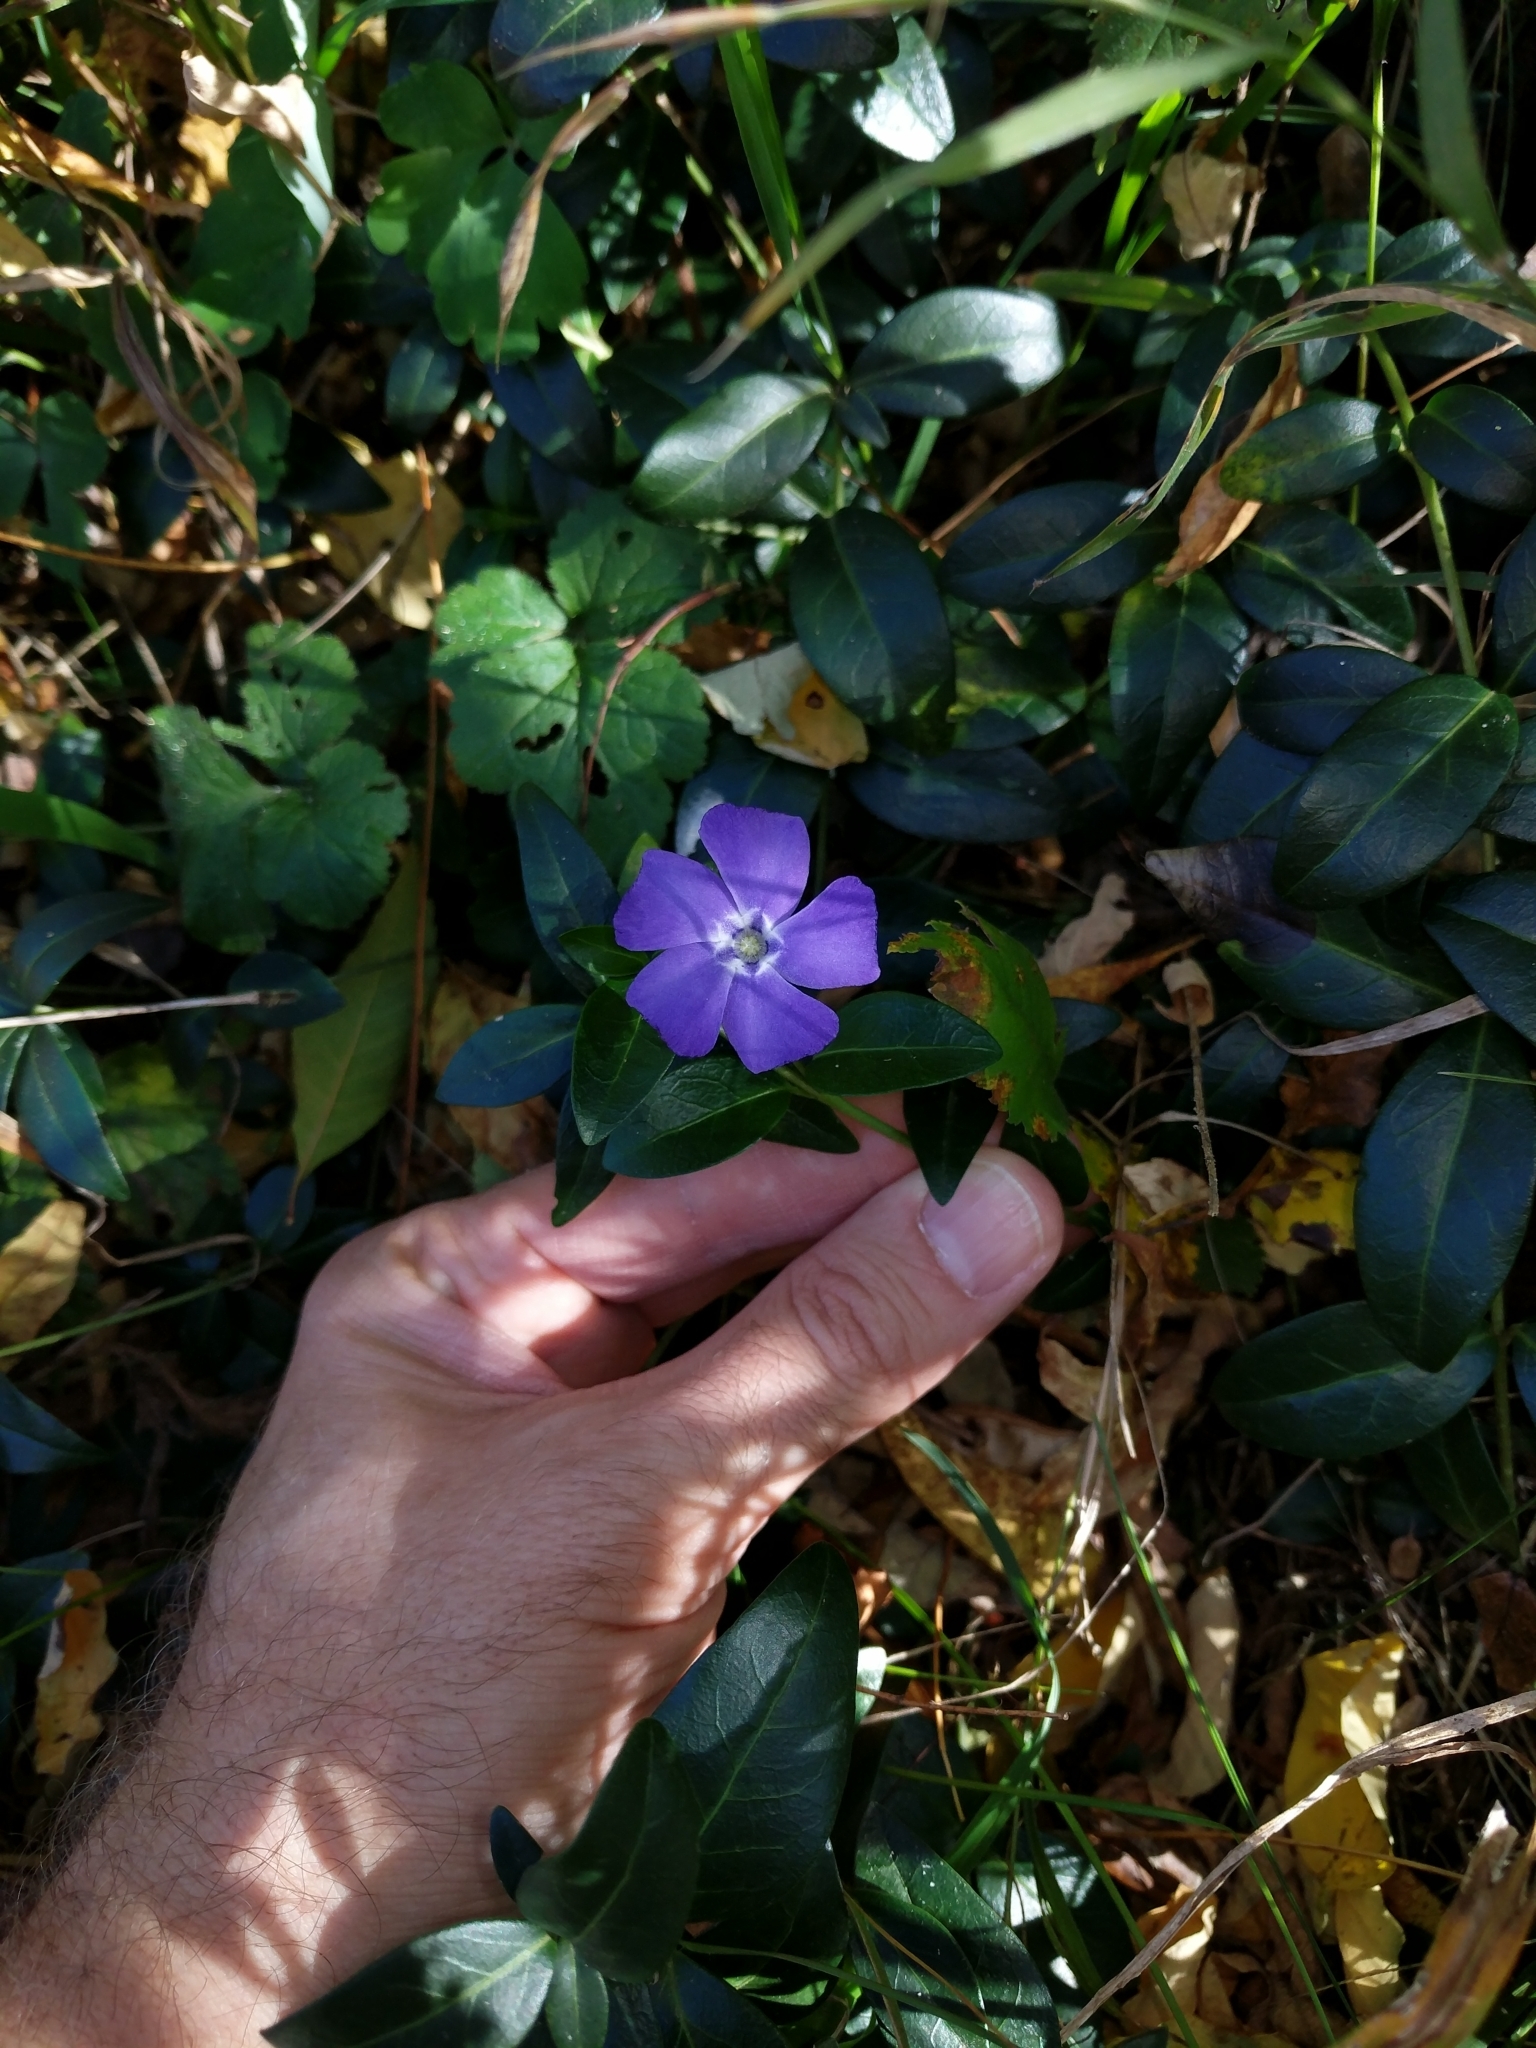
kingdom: Plantae
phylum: Tracheophyta
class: Magnoliopsida
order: Gentianales
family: Apocynaceae
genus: Vinca
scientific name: Vinca minor
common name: Lesser periwinkle
